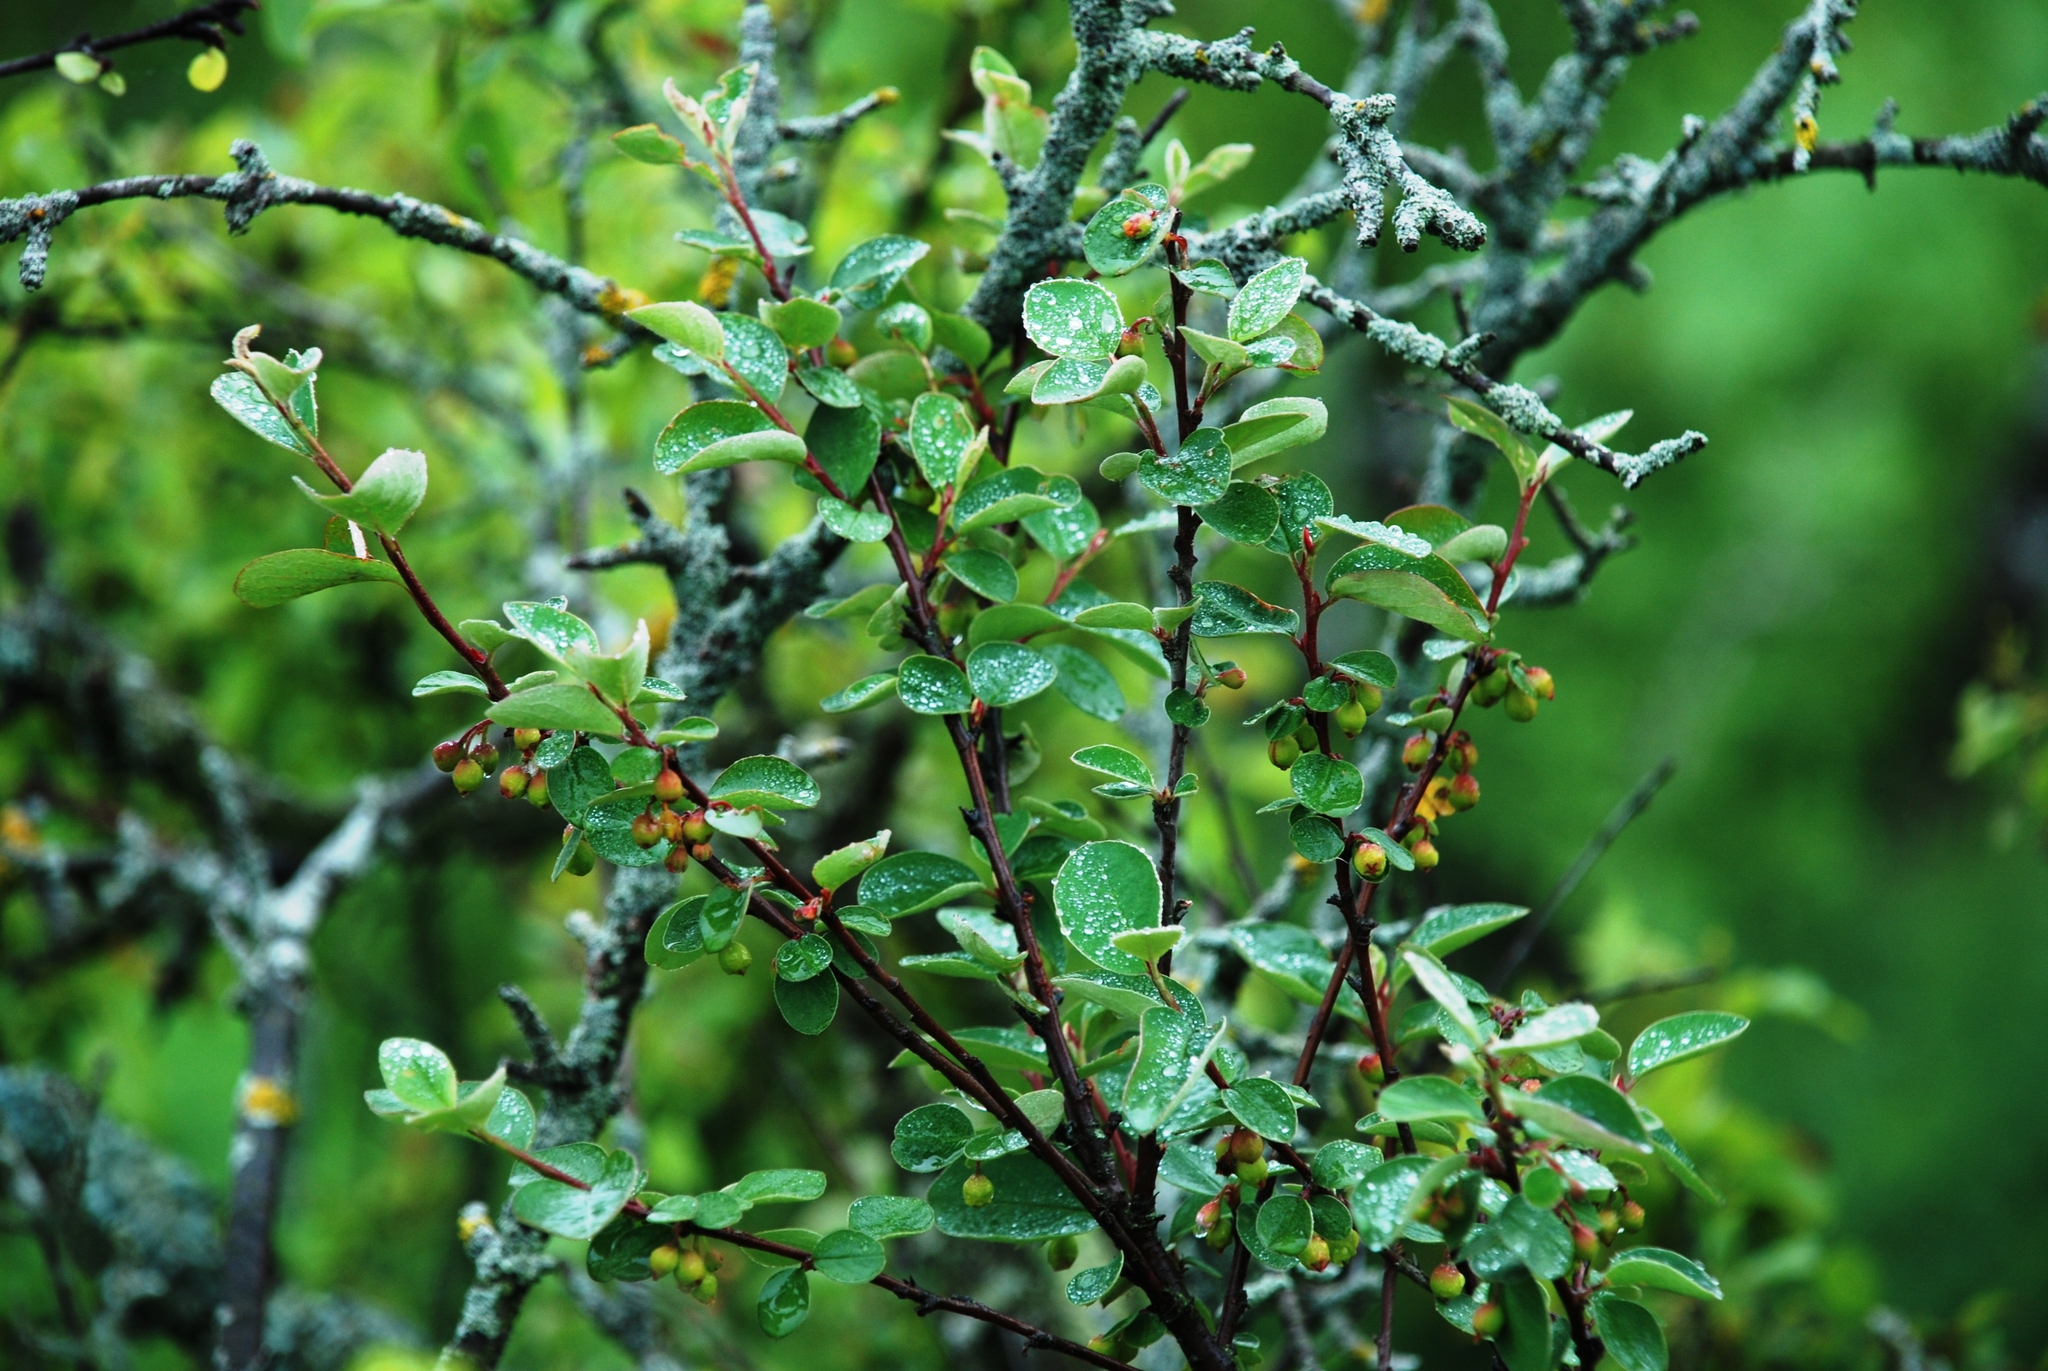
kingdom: Plantae
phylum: Tracheophyta
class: Magnoliopsida
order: Rosales
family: Rosaceae
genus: Cotoneaster
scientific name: Cotoneaster alaunicus
